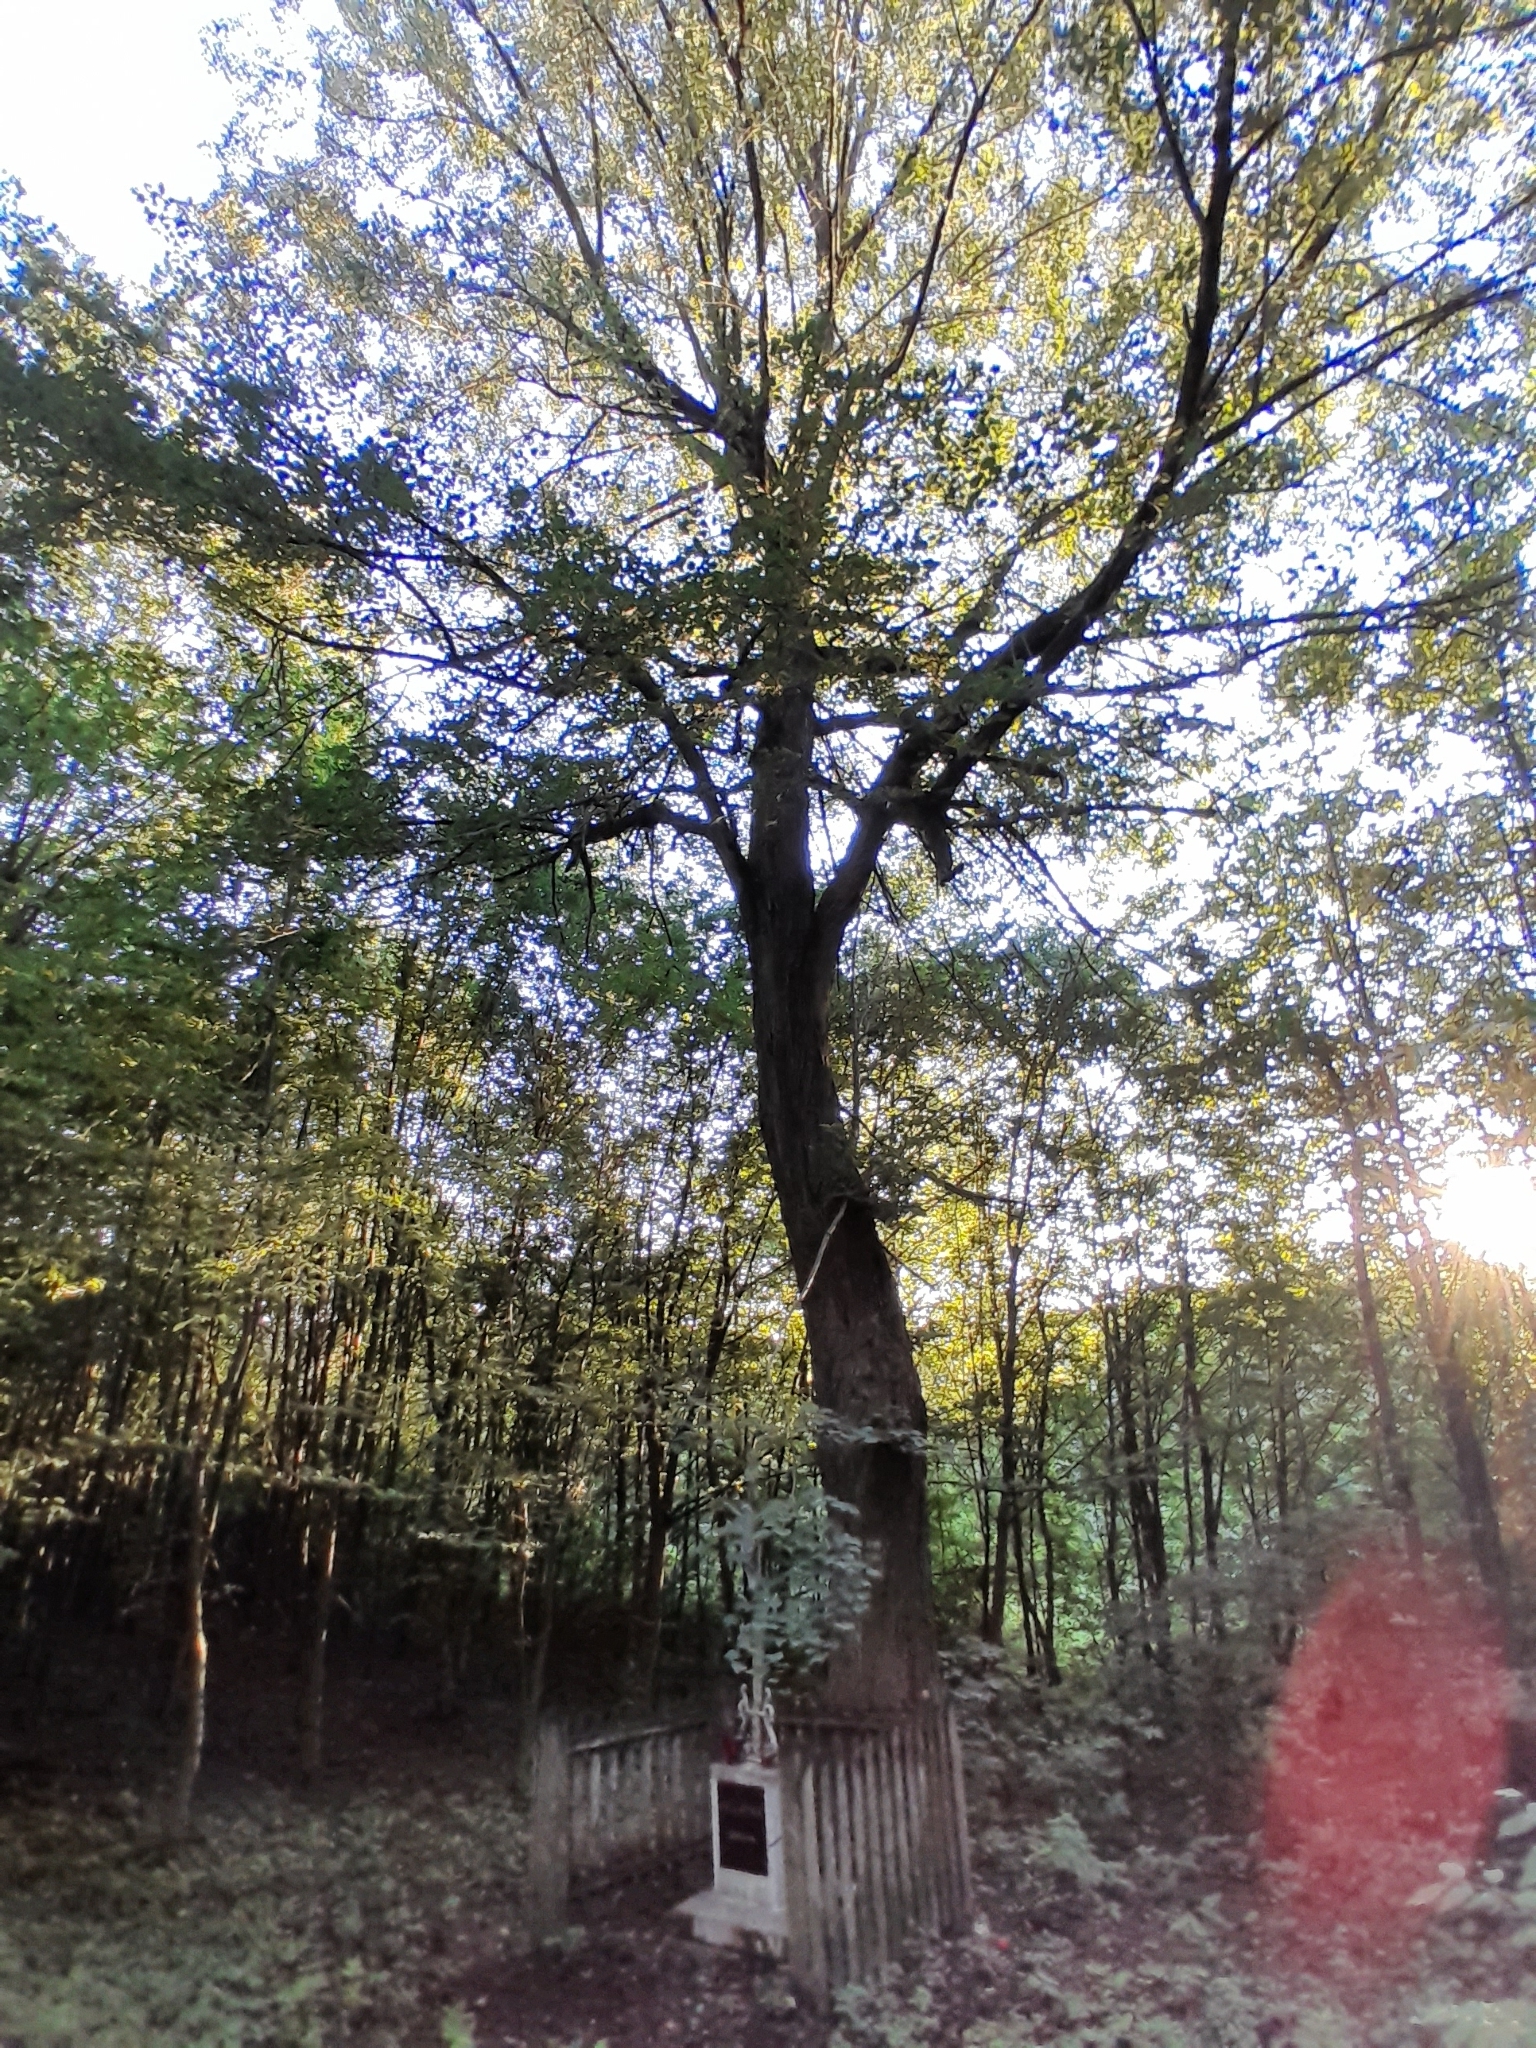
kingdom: Plantae
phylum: Tracheophyta
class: Magnoliopsida
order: Malvales
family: Malvaceae
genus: Tilia
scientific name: Tilia cordata
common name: Small-leaved lime
